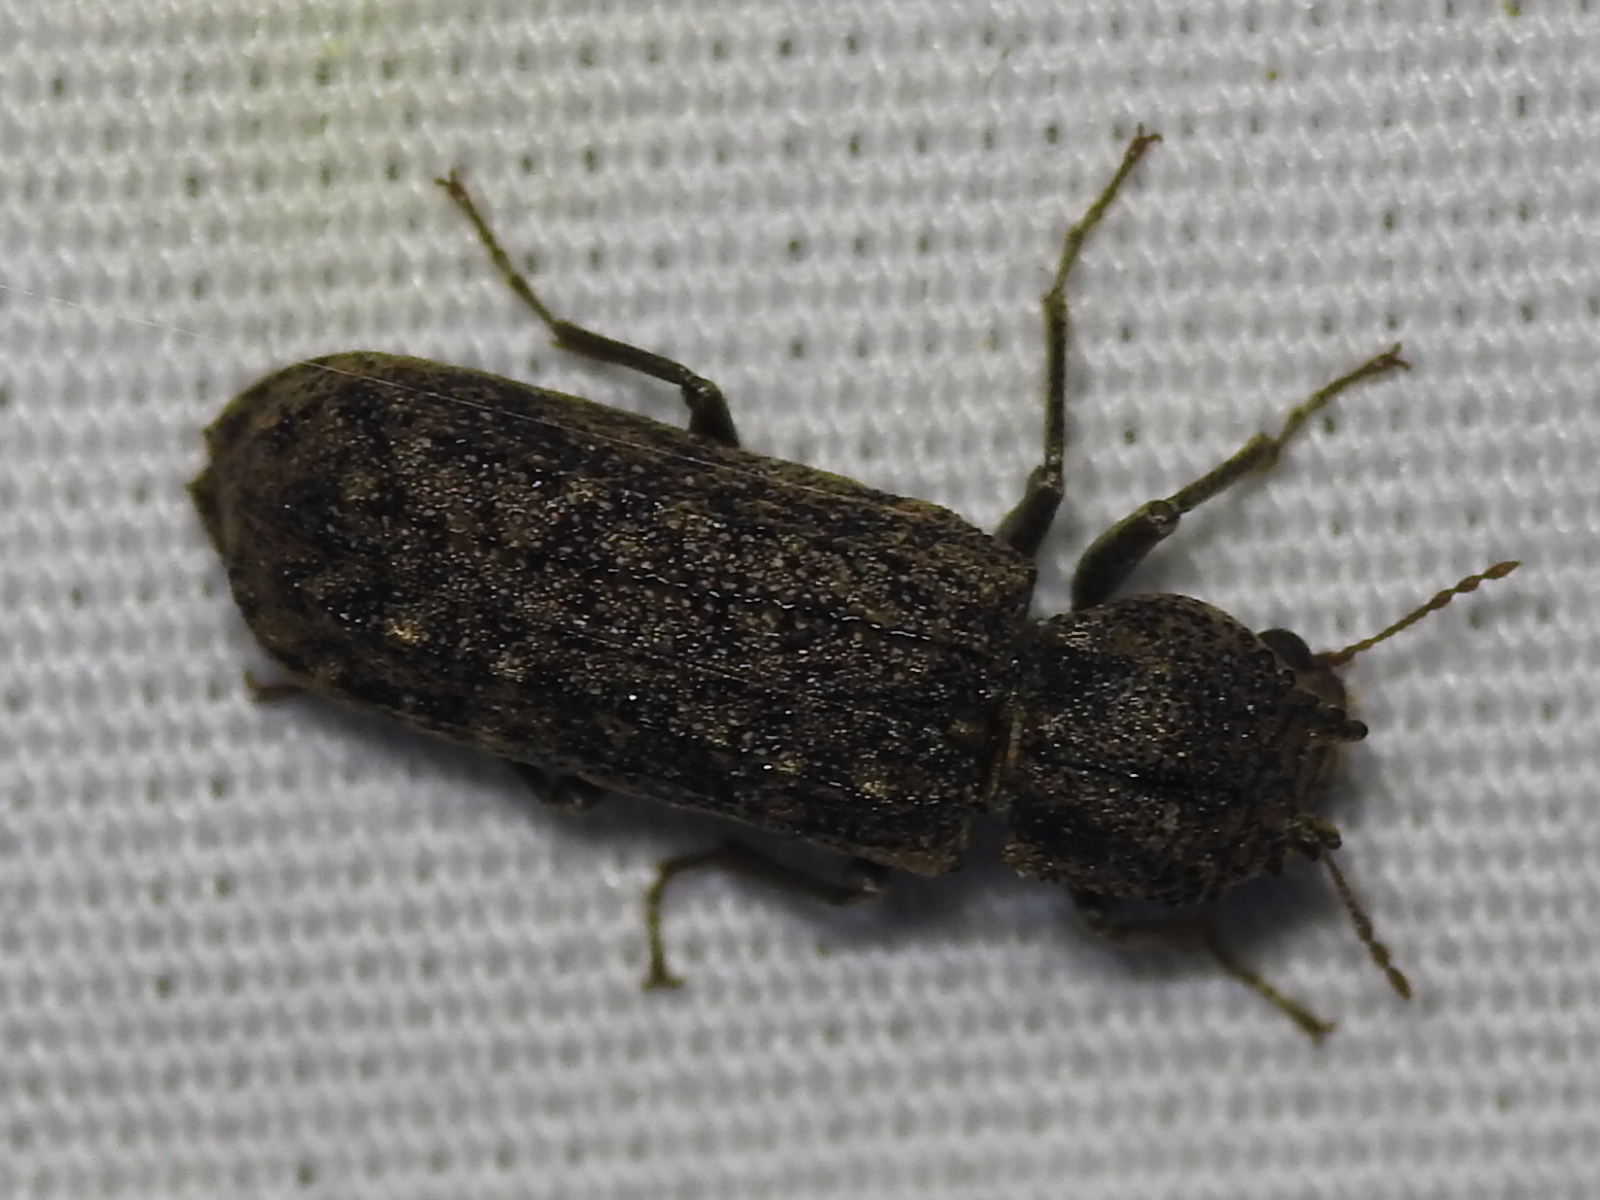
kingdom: Animalia
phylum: Arthropoda
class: Insecta
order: Coleoptera
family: Bostrichidae
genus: Lichenophanes
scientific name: Lichenophanes bicornis
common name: Two-horned powder-post beetle
